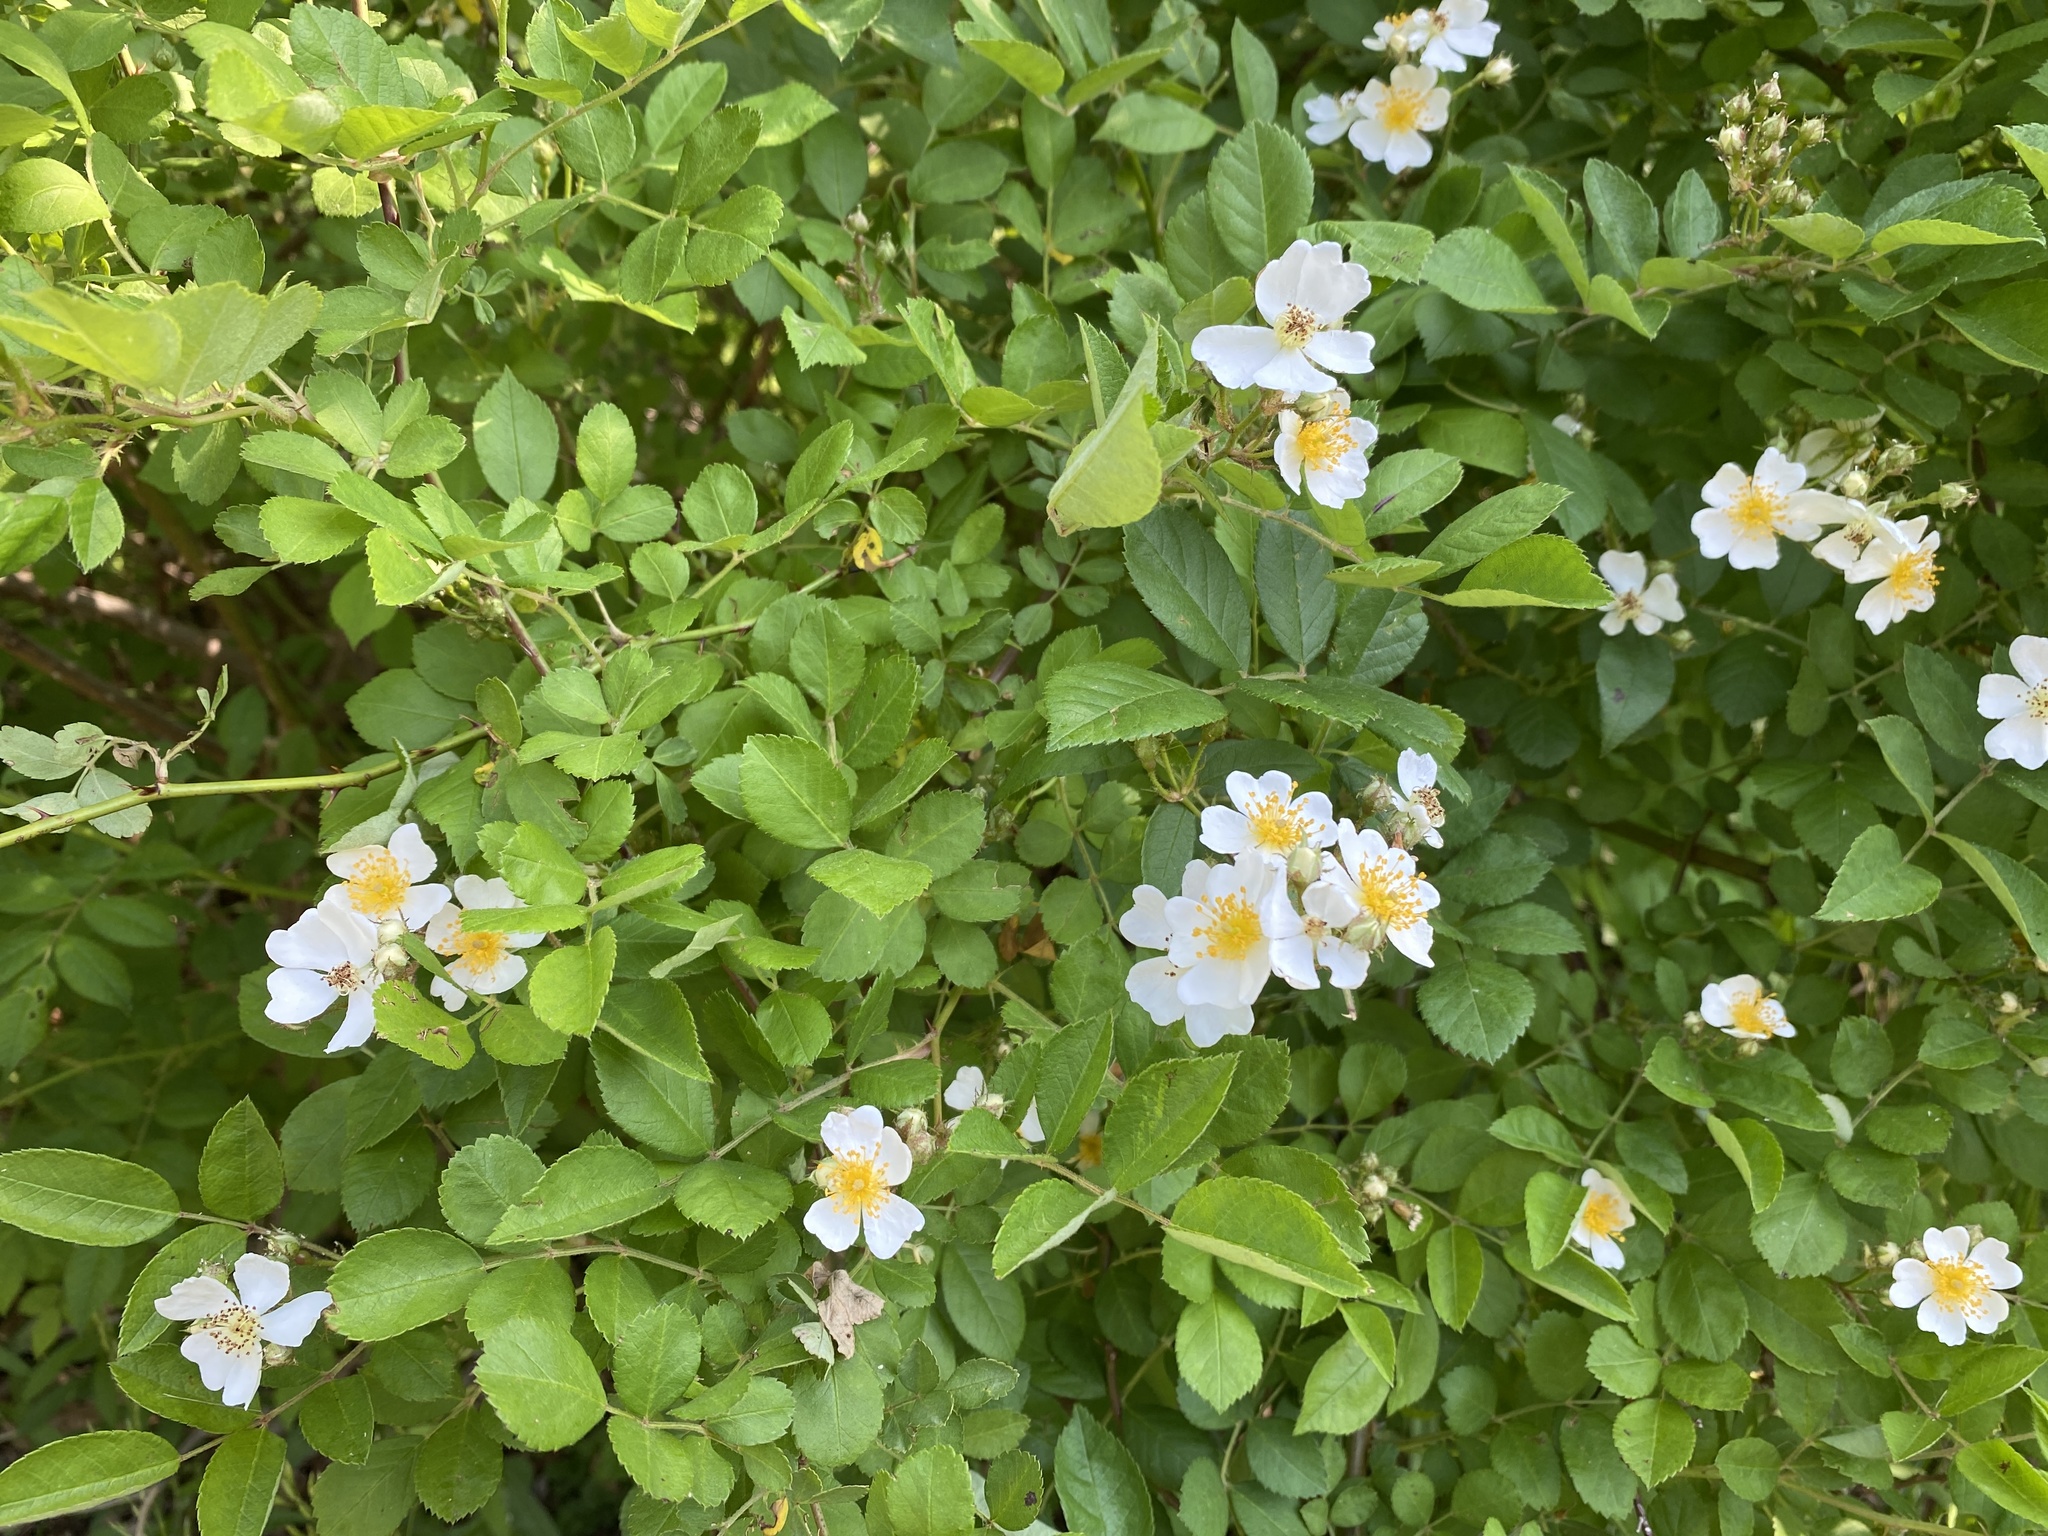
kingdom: Plantae
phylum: Tracheophyta
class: Magnoliopsida
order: Rosales
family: Rosaceae
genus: Rosa
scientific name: Rosa multiflora
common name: Multiflora rose
